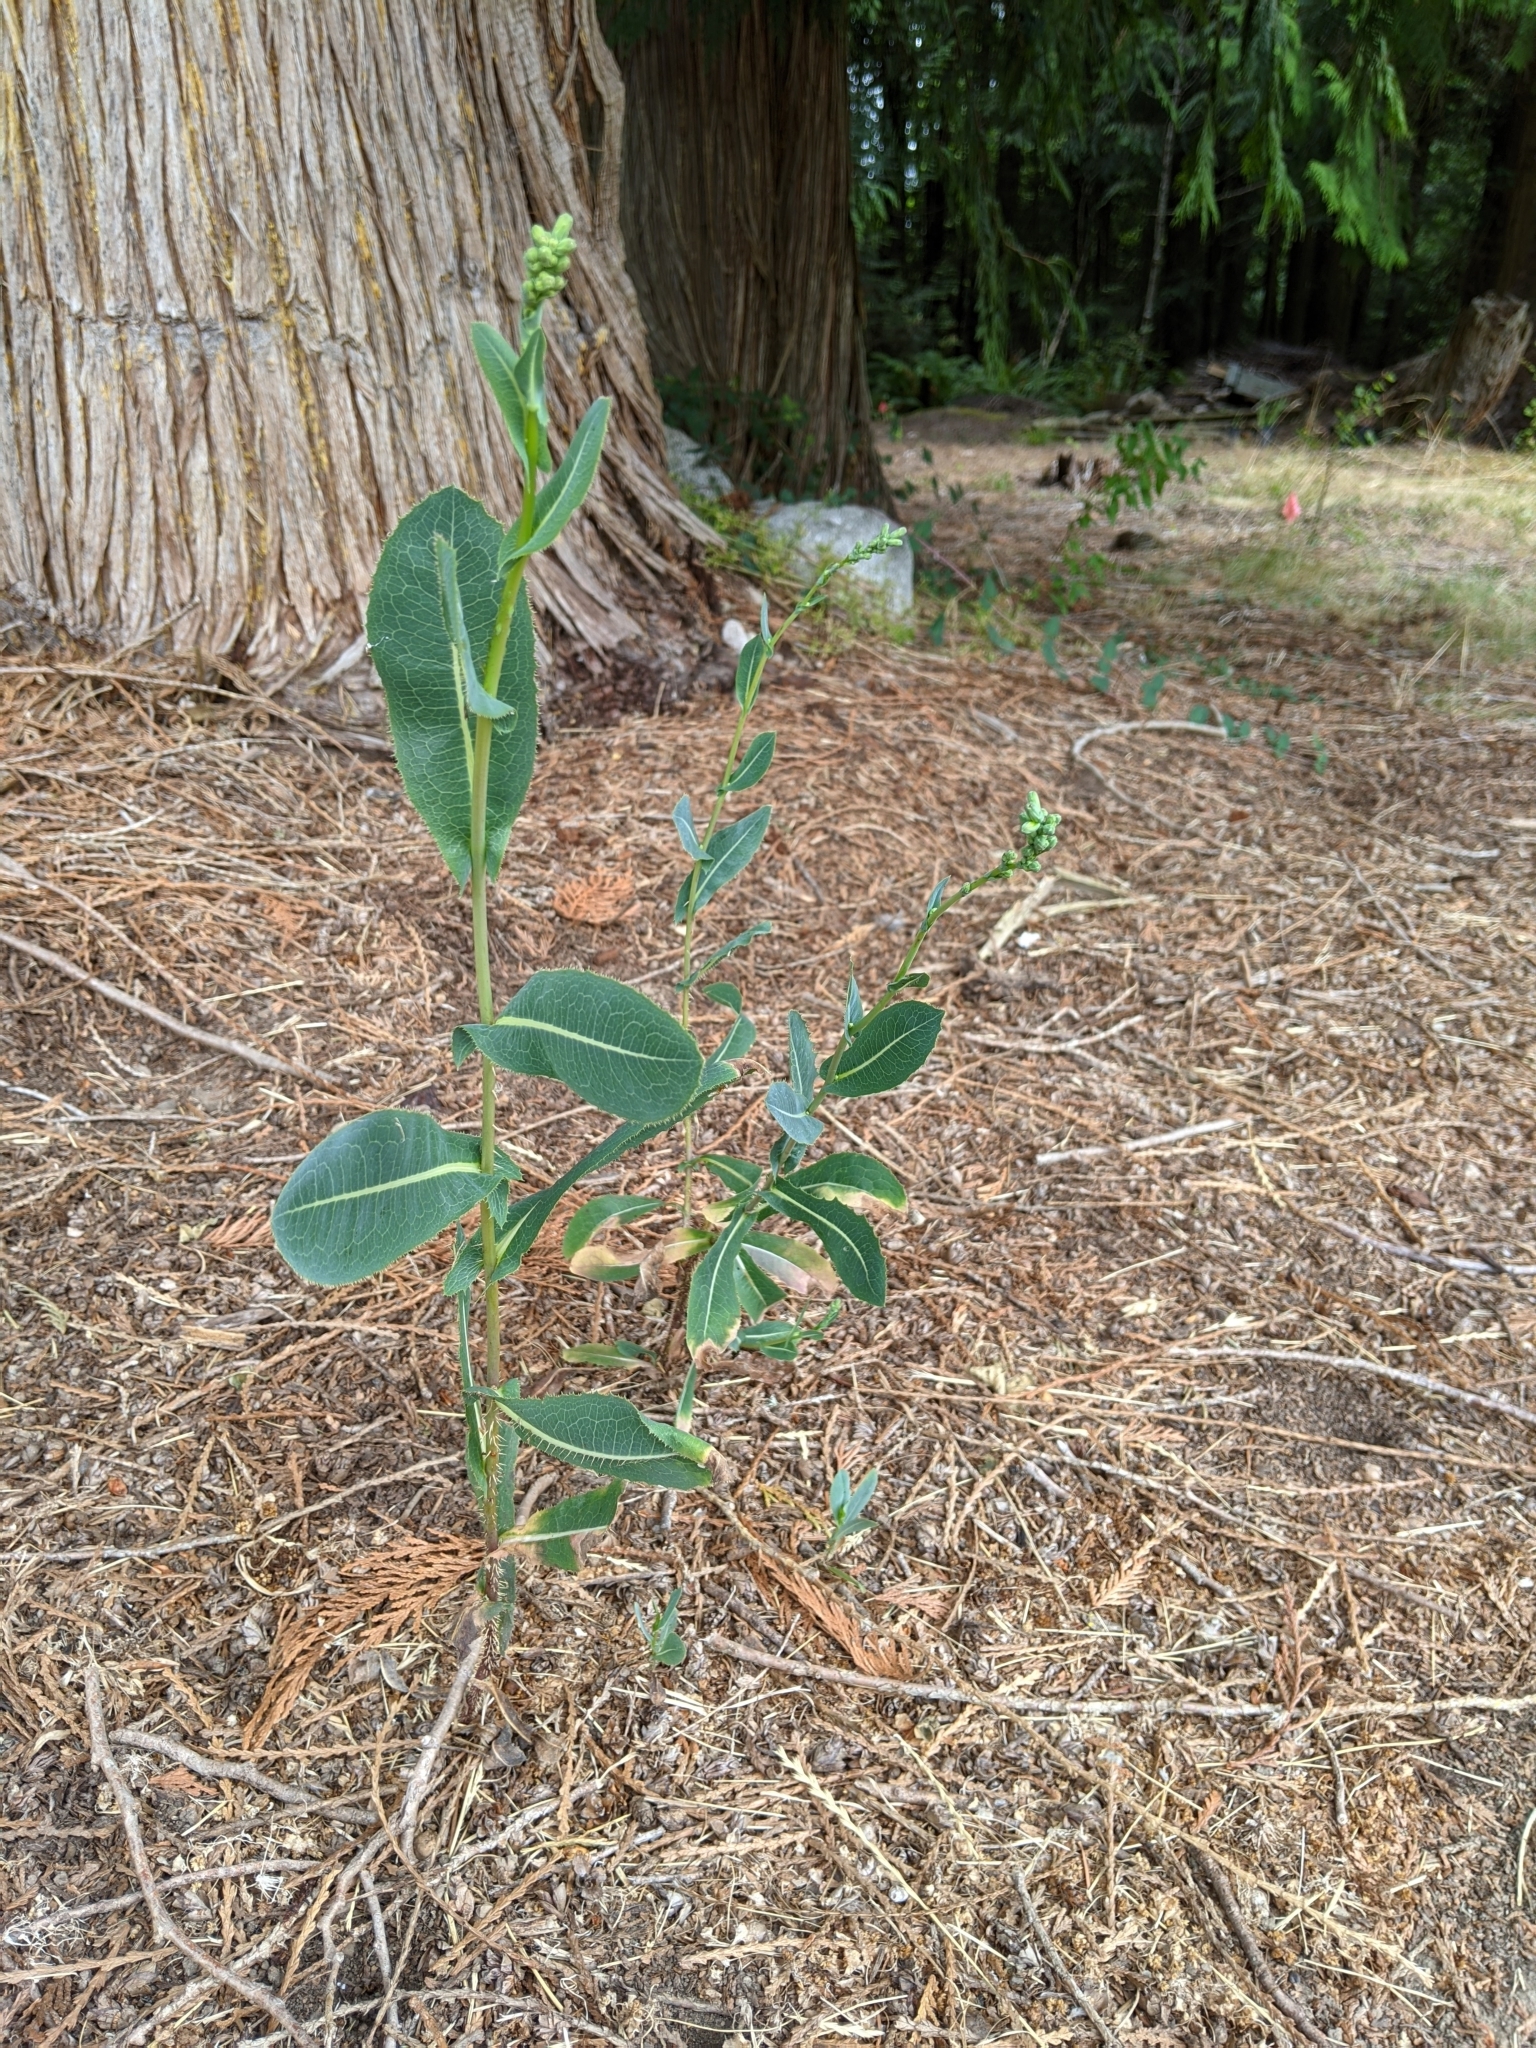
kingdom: Plantae
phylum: Tracheophyta
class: Magnoliopsida
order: Asterales
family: Asteraceae
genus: Lactuca
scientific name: Lactuca serriola
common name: Prickly lettuce
